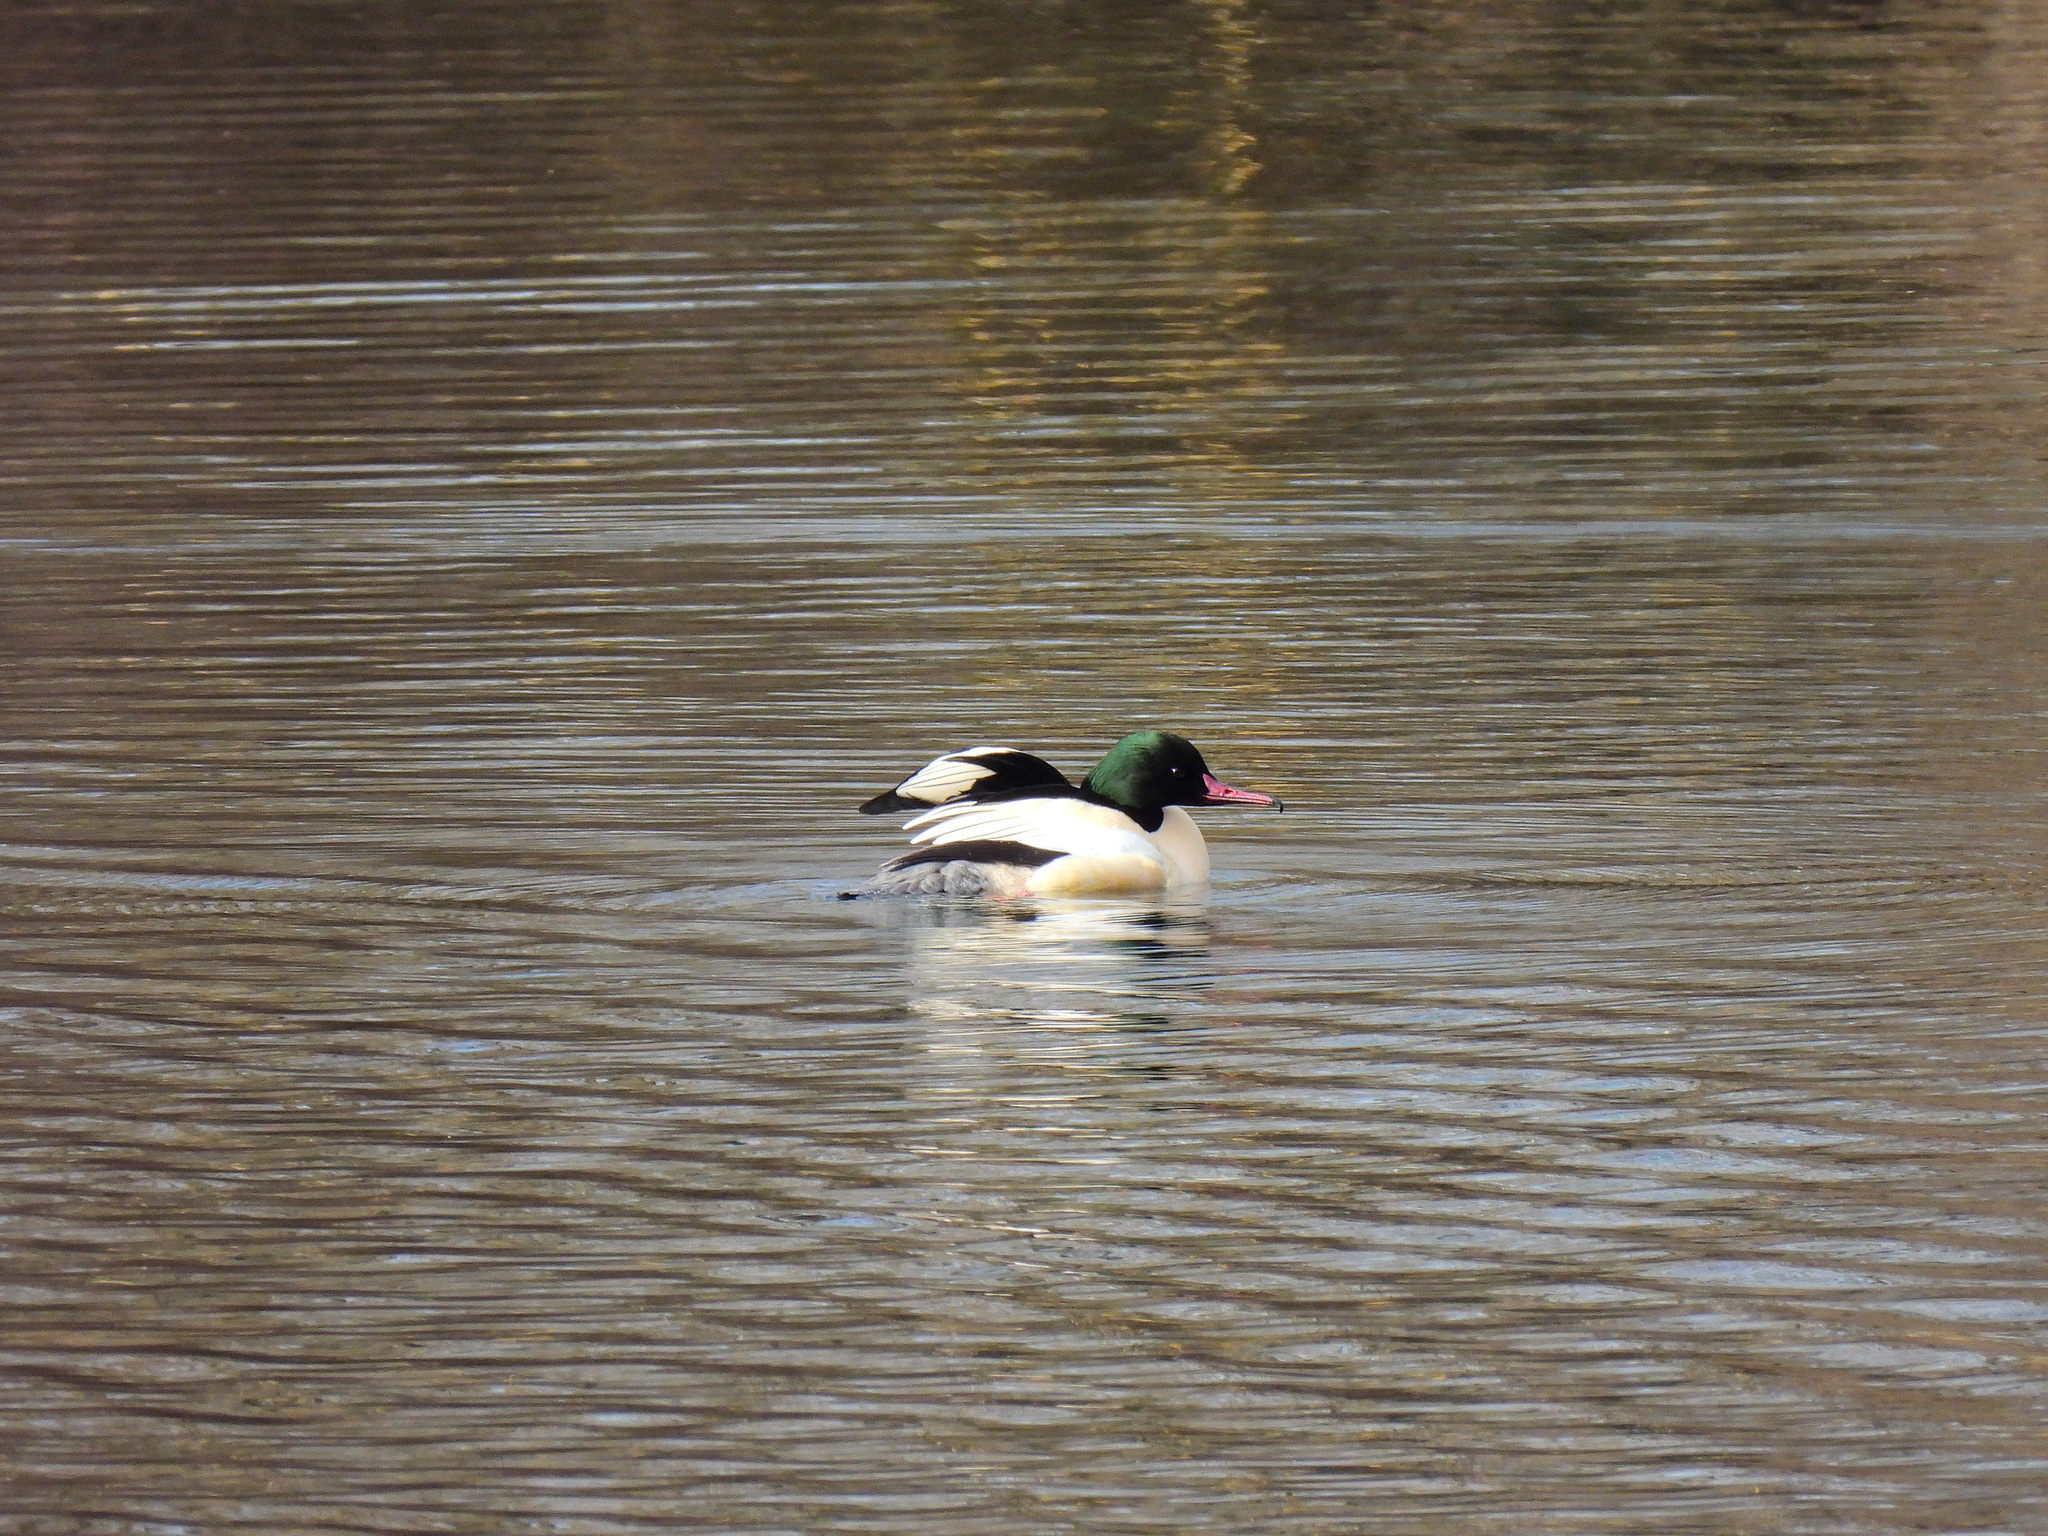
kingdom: Animalia
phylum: Chordata
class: Aves
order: Anseriformes
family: Anatidae
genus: Mergus
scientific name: Mergus merganser
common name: Common merganser
